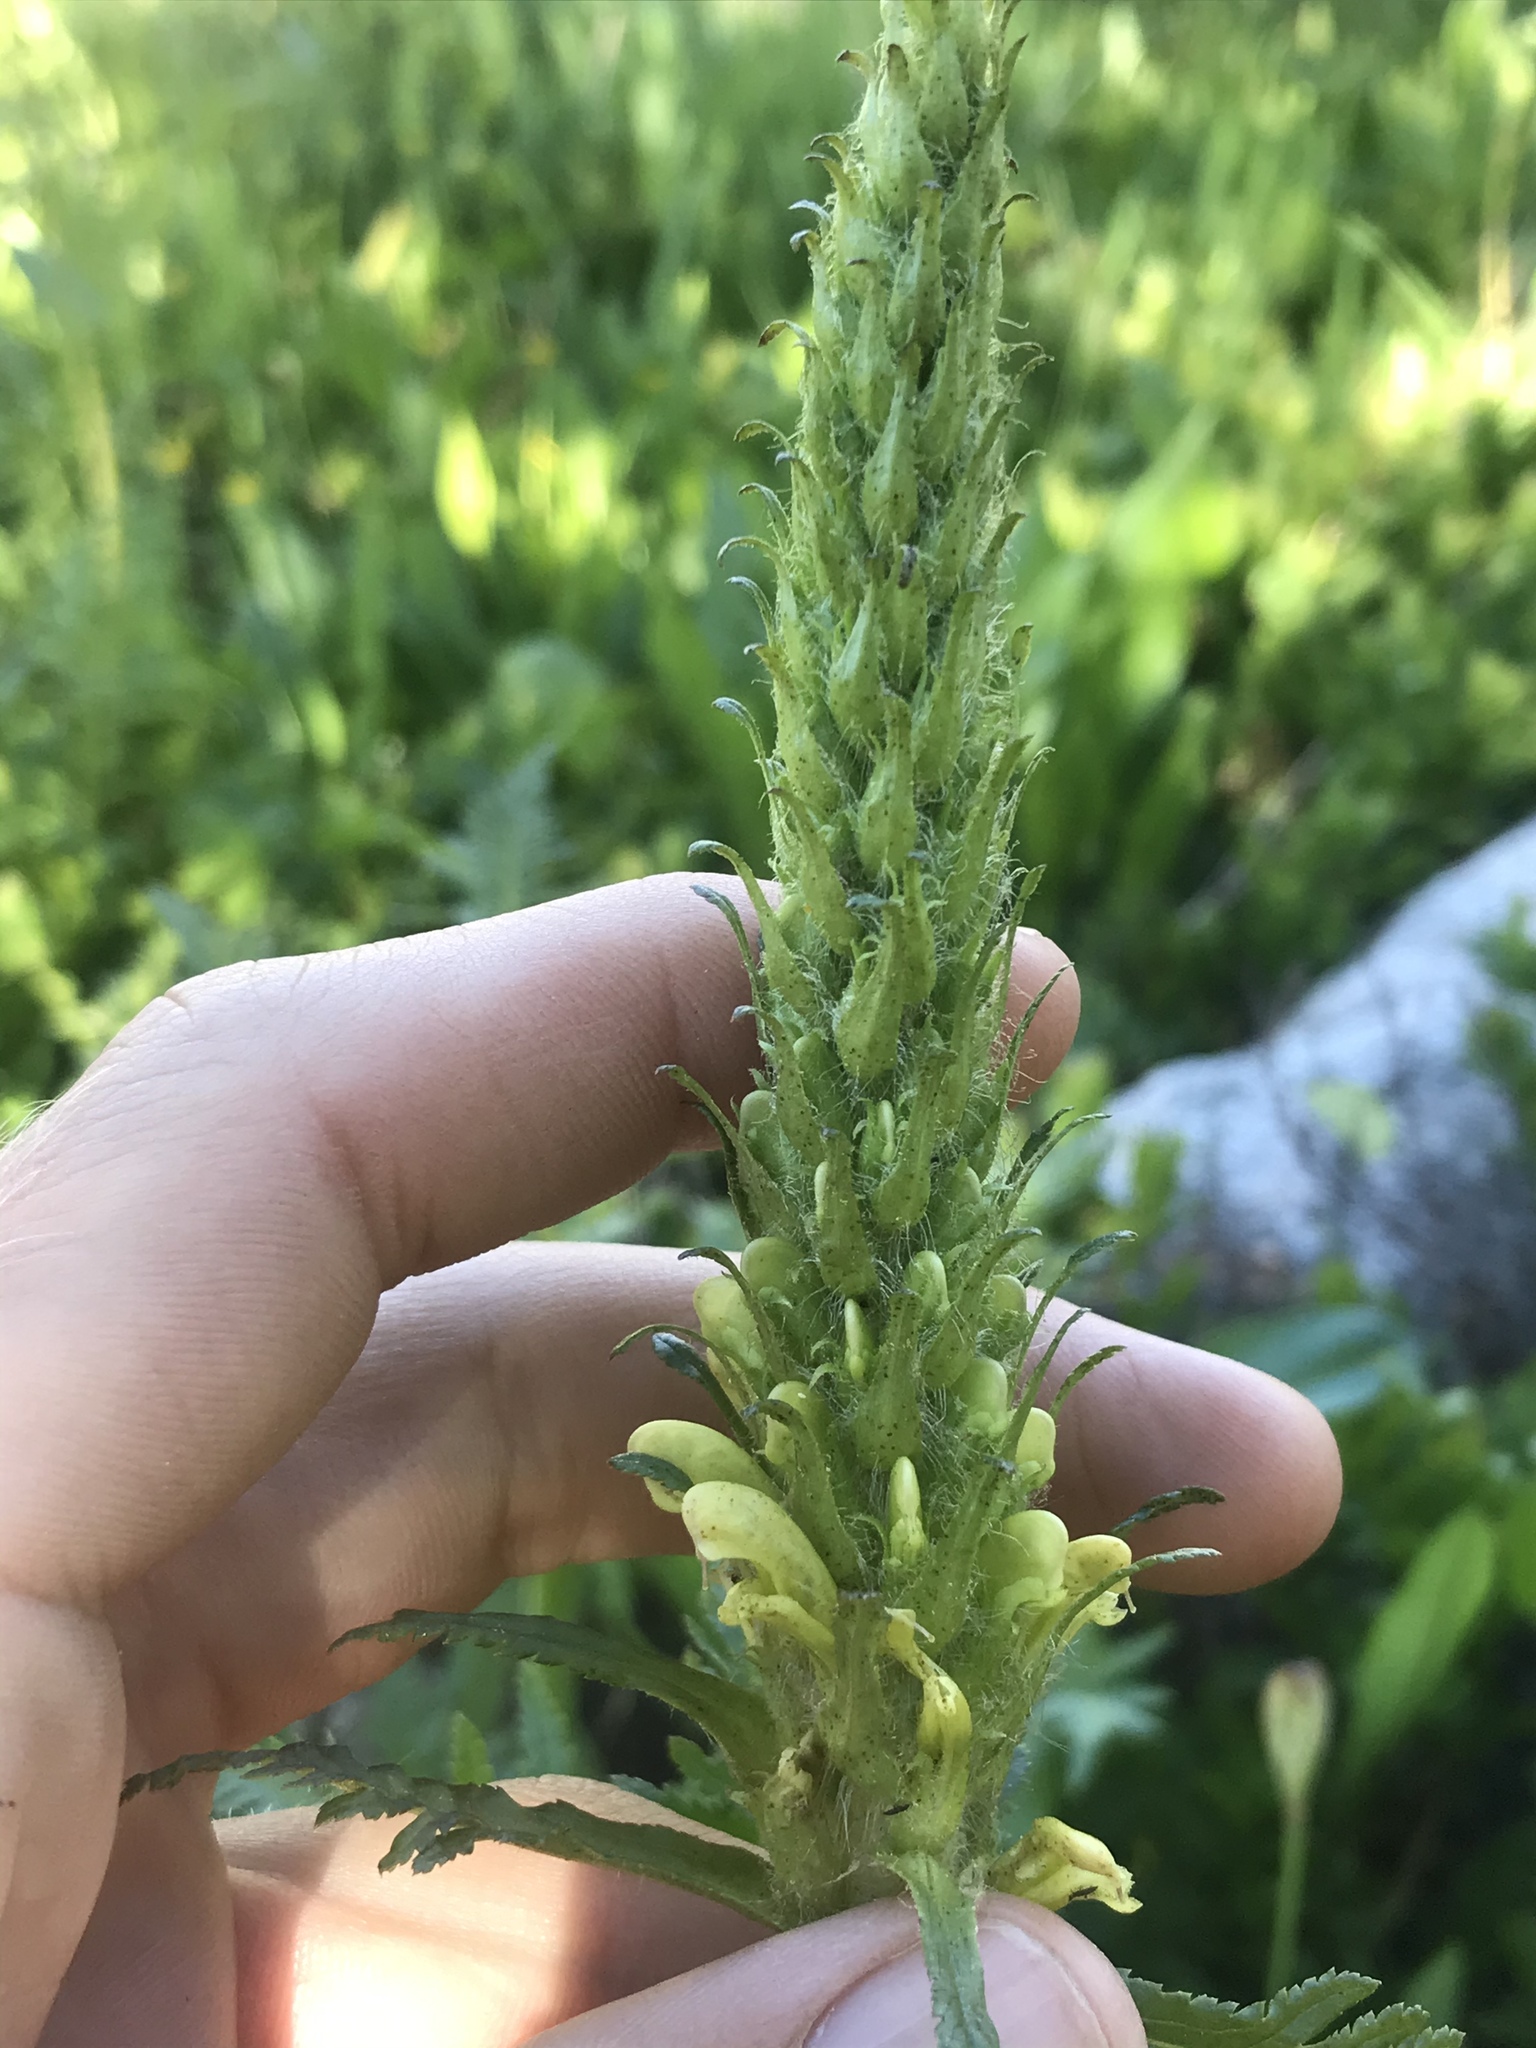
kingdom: Plantae
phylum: Tracheophyta
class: Magnoliopsida
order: Lamiales
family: Orobanchaceae
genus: Pedicularis
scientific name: Pedicularis bracteosa
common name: Bracted lousewort
